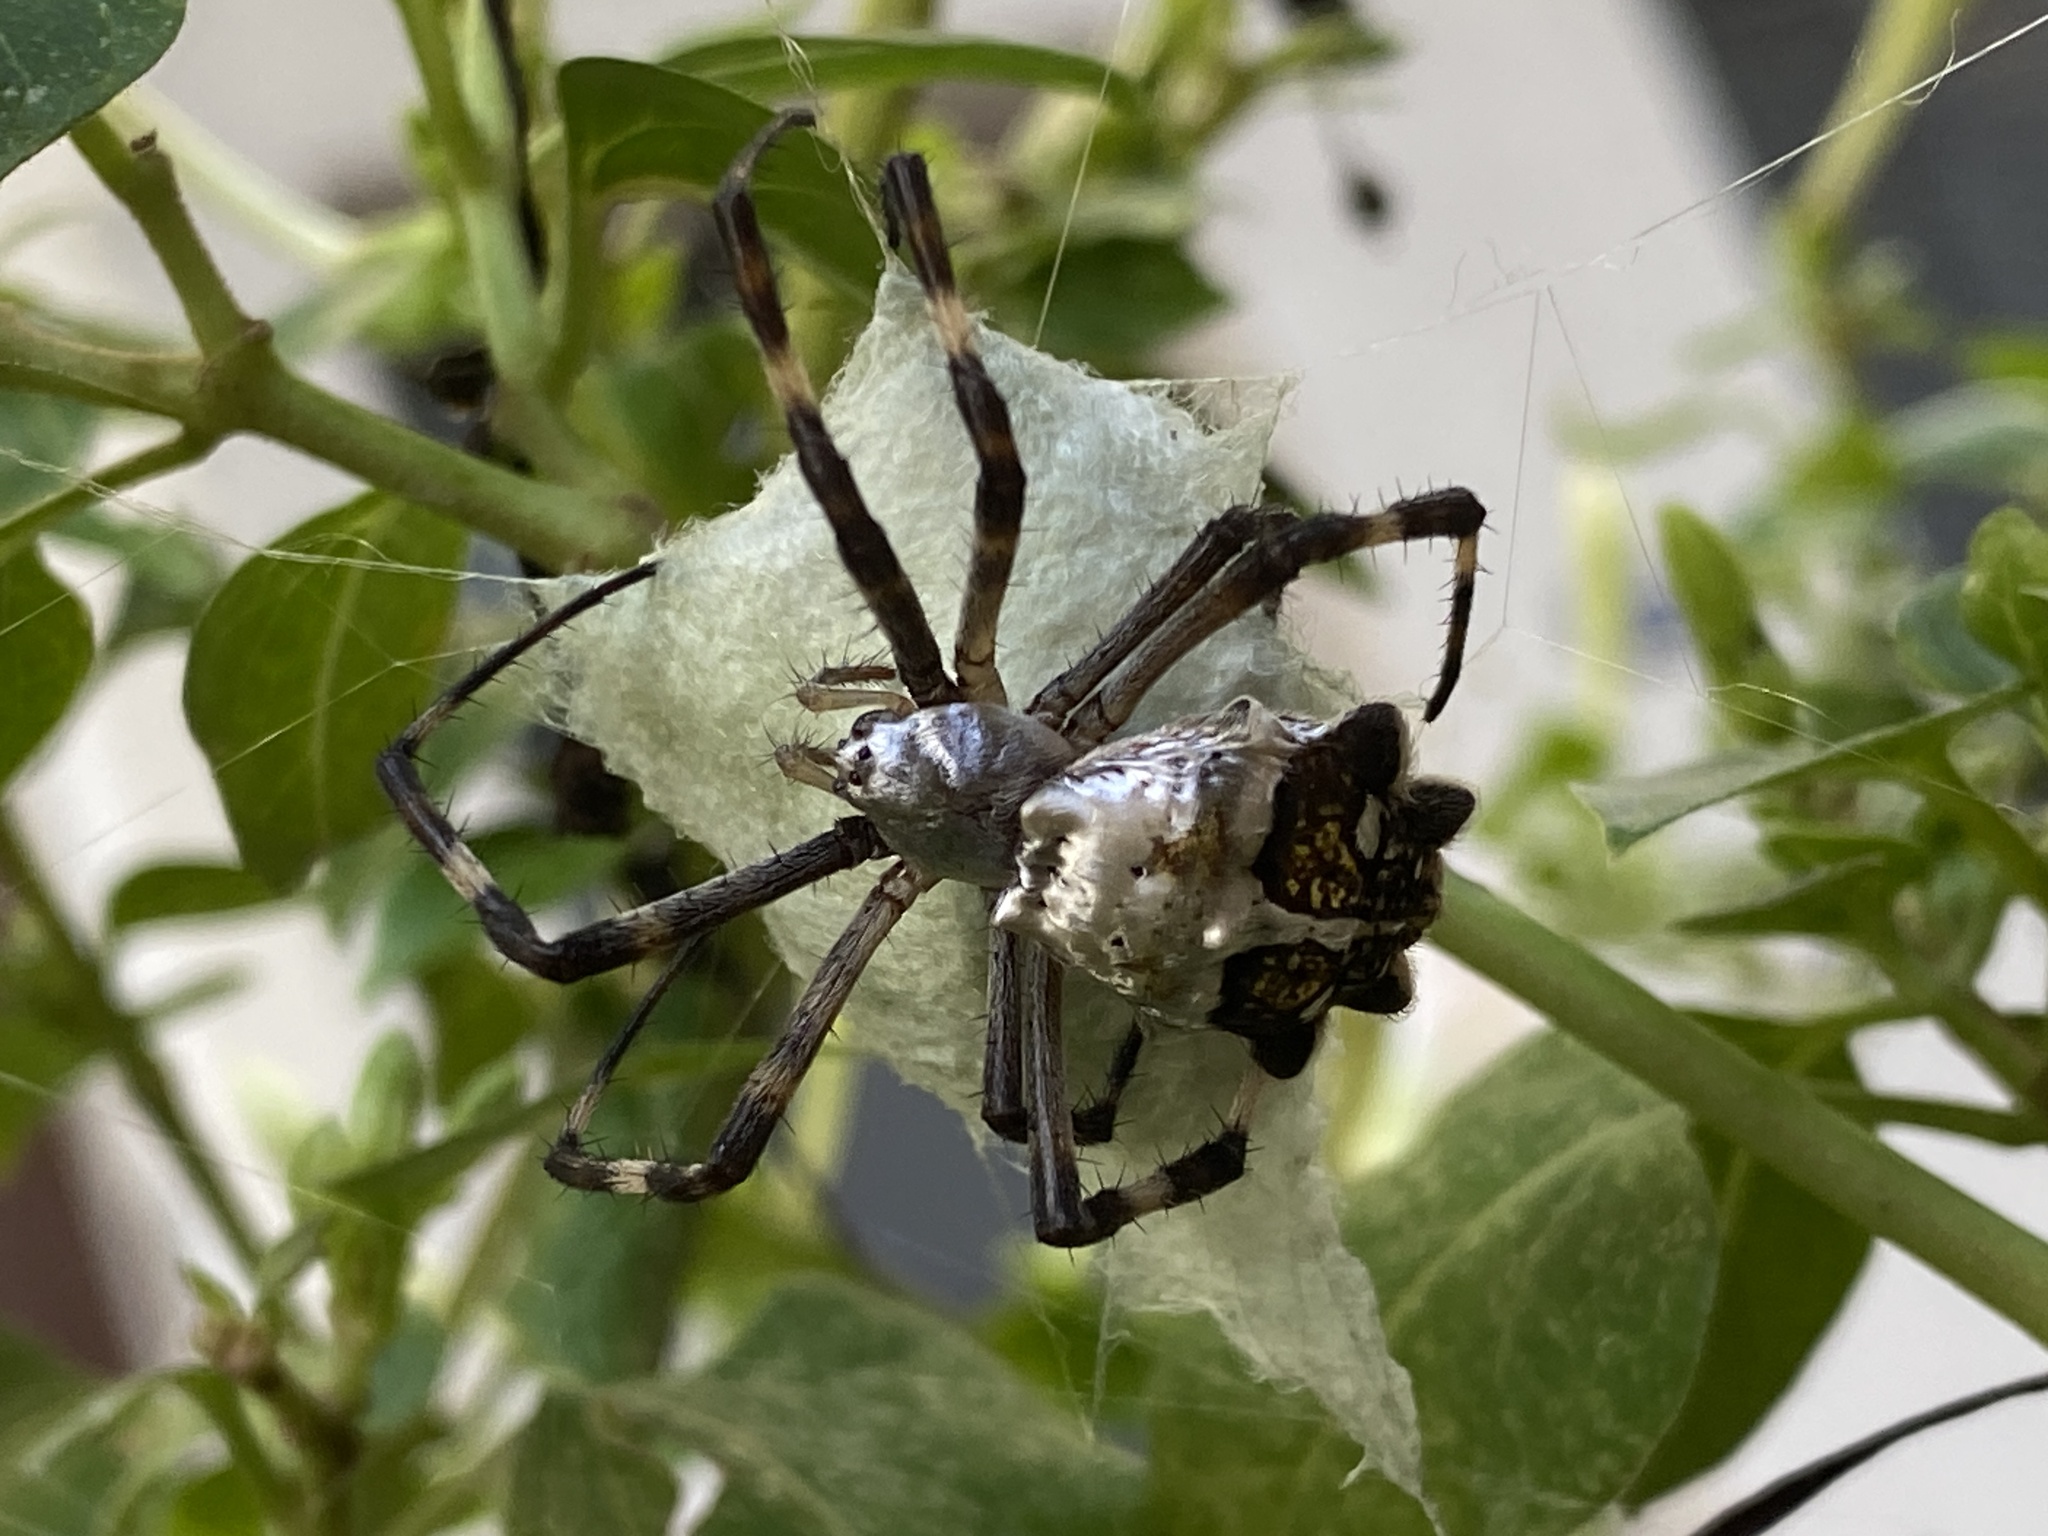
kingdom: Animalia
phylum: Arthropoda
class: Arachnida
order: Araneae
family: Araneidae
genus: Argiope
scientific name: Argiope argentata
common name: Orb weavers
